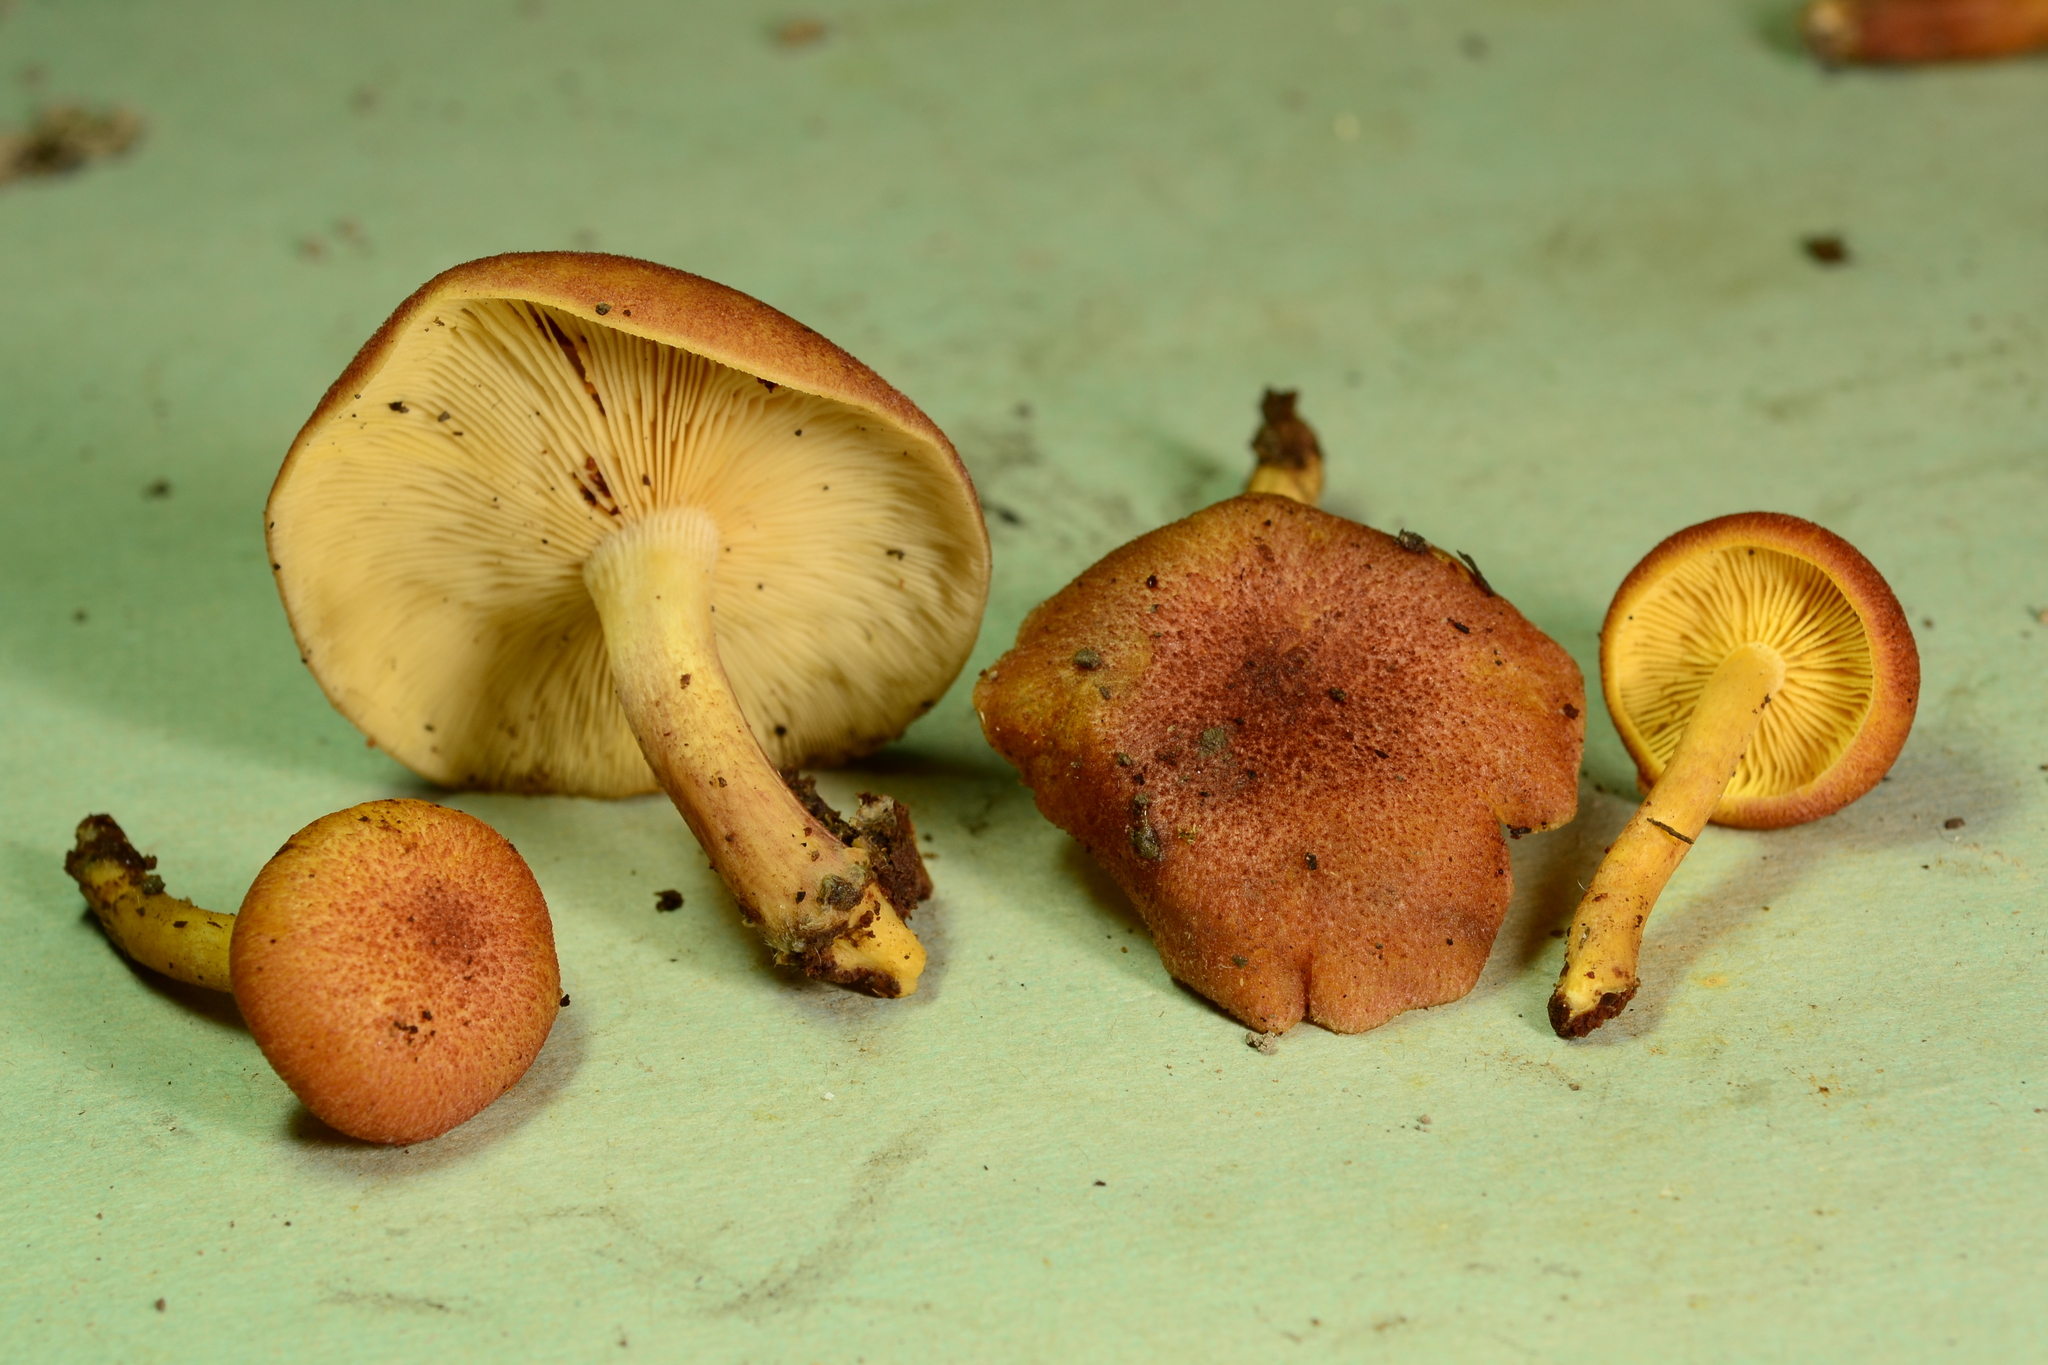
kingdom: Fungi
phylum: Basidiomycota
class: Agaricomycetes
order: Agaricales
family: Tricholomataceae
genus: Tricholomopsis
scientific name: Tricholomopsis rutilans
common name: Plums and custard
